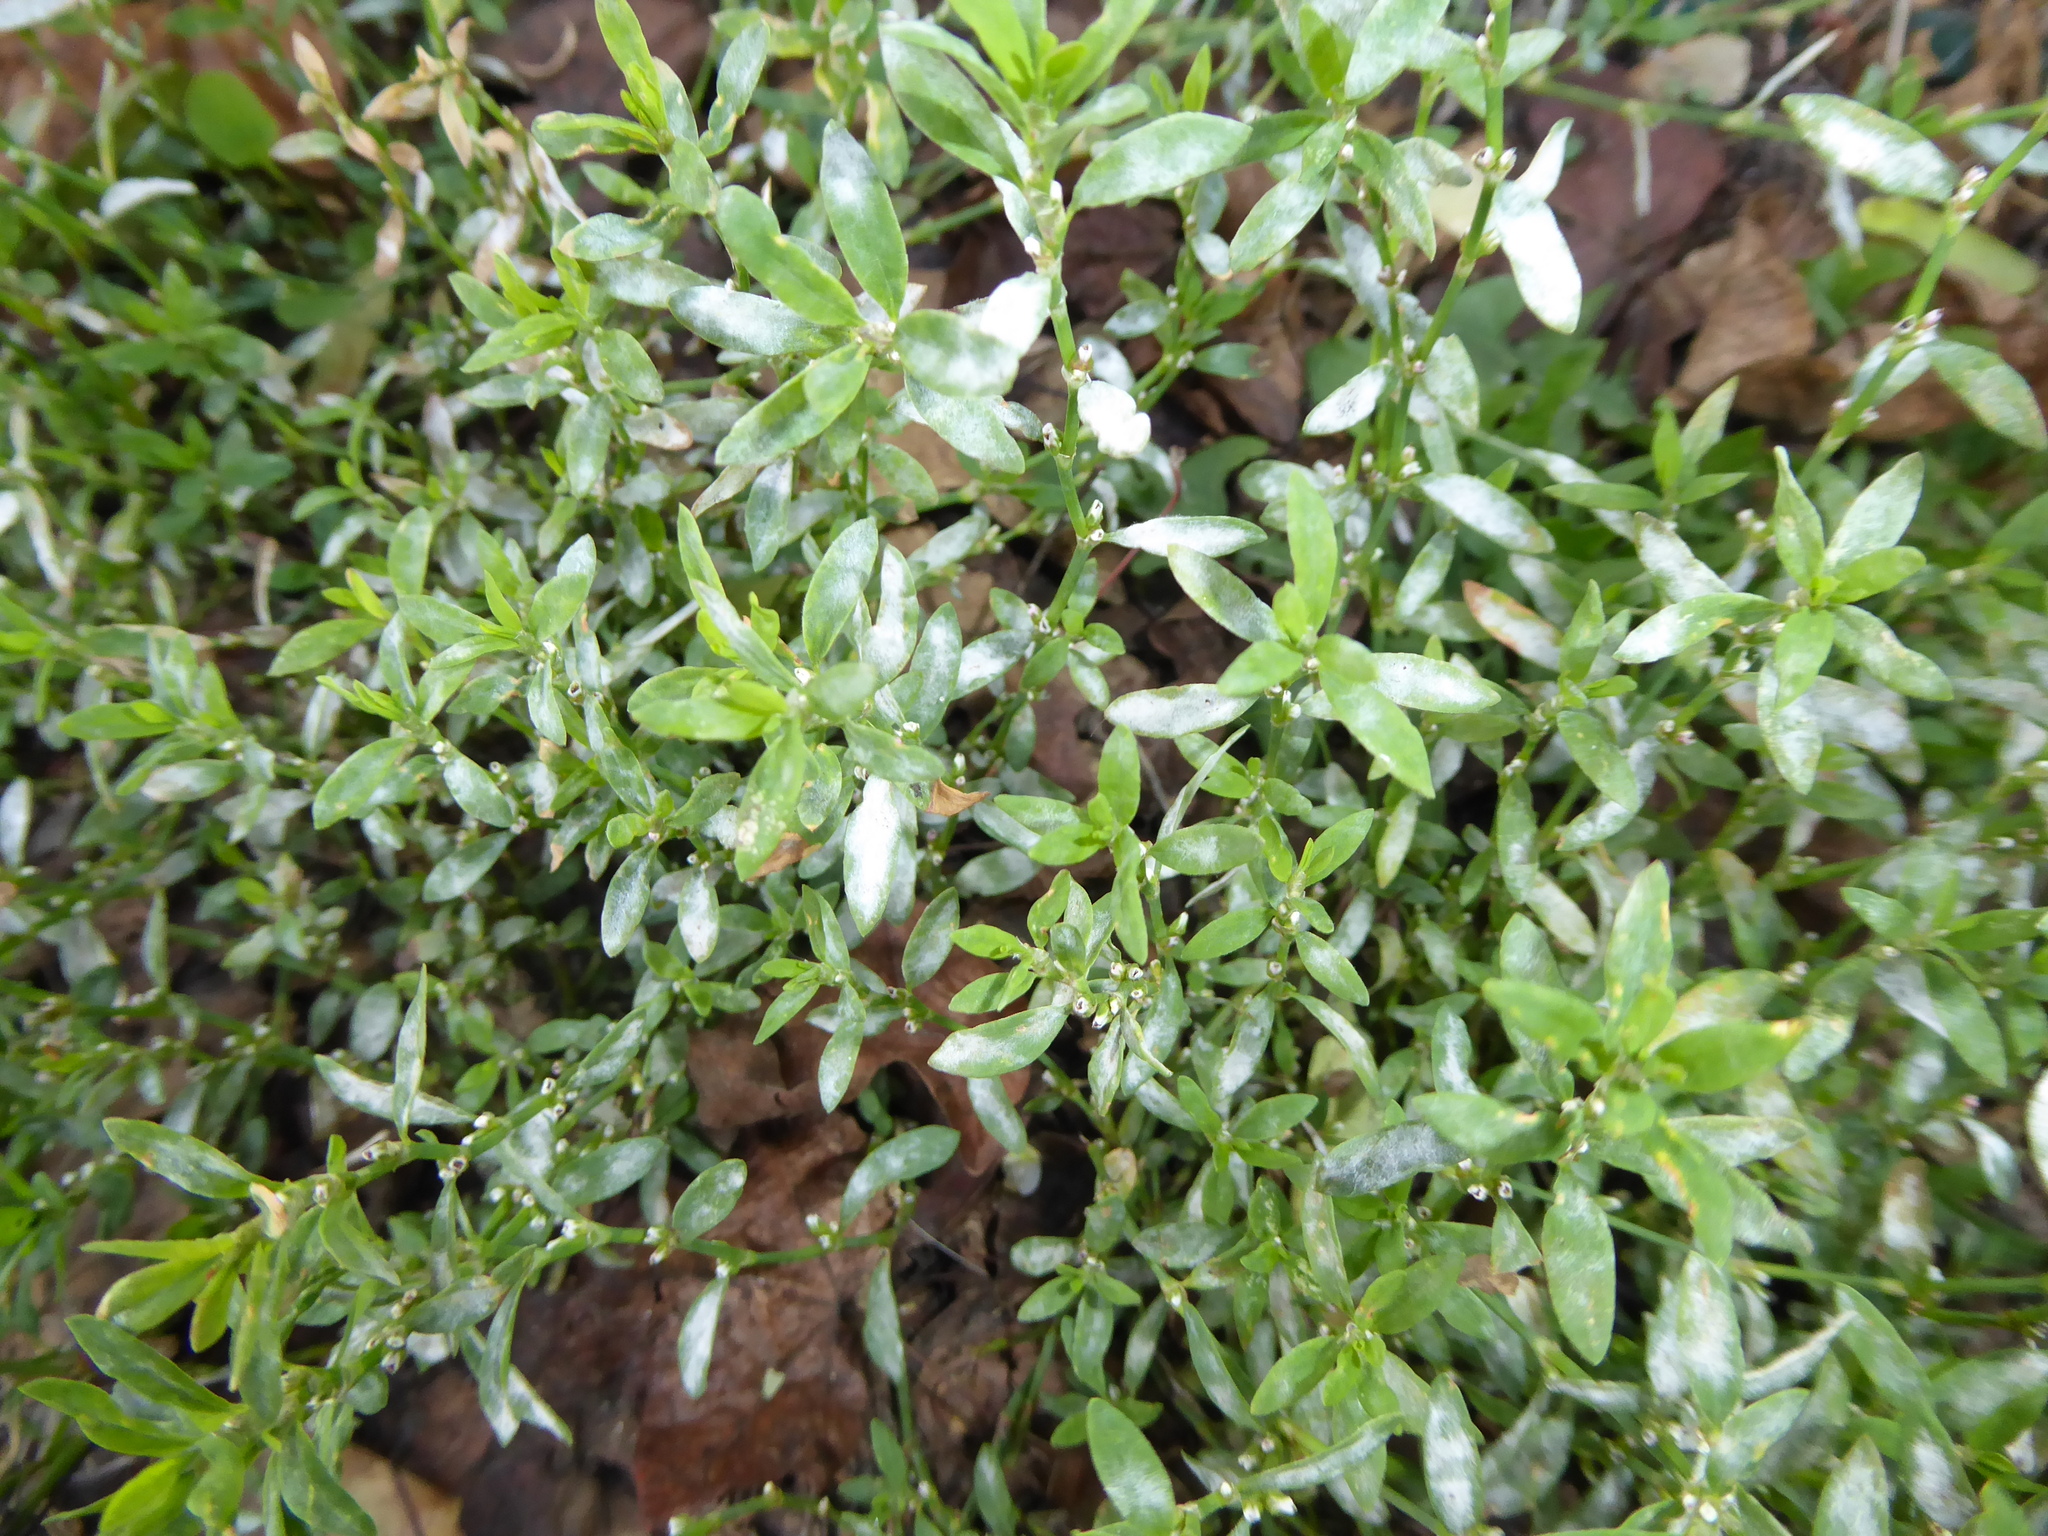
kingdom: Fungi
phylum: Ascomycota
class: Leotiomycetes
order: Helotiales
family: Erysiphaceae
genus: Erysiphe
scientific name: Erysiphe polygoni
